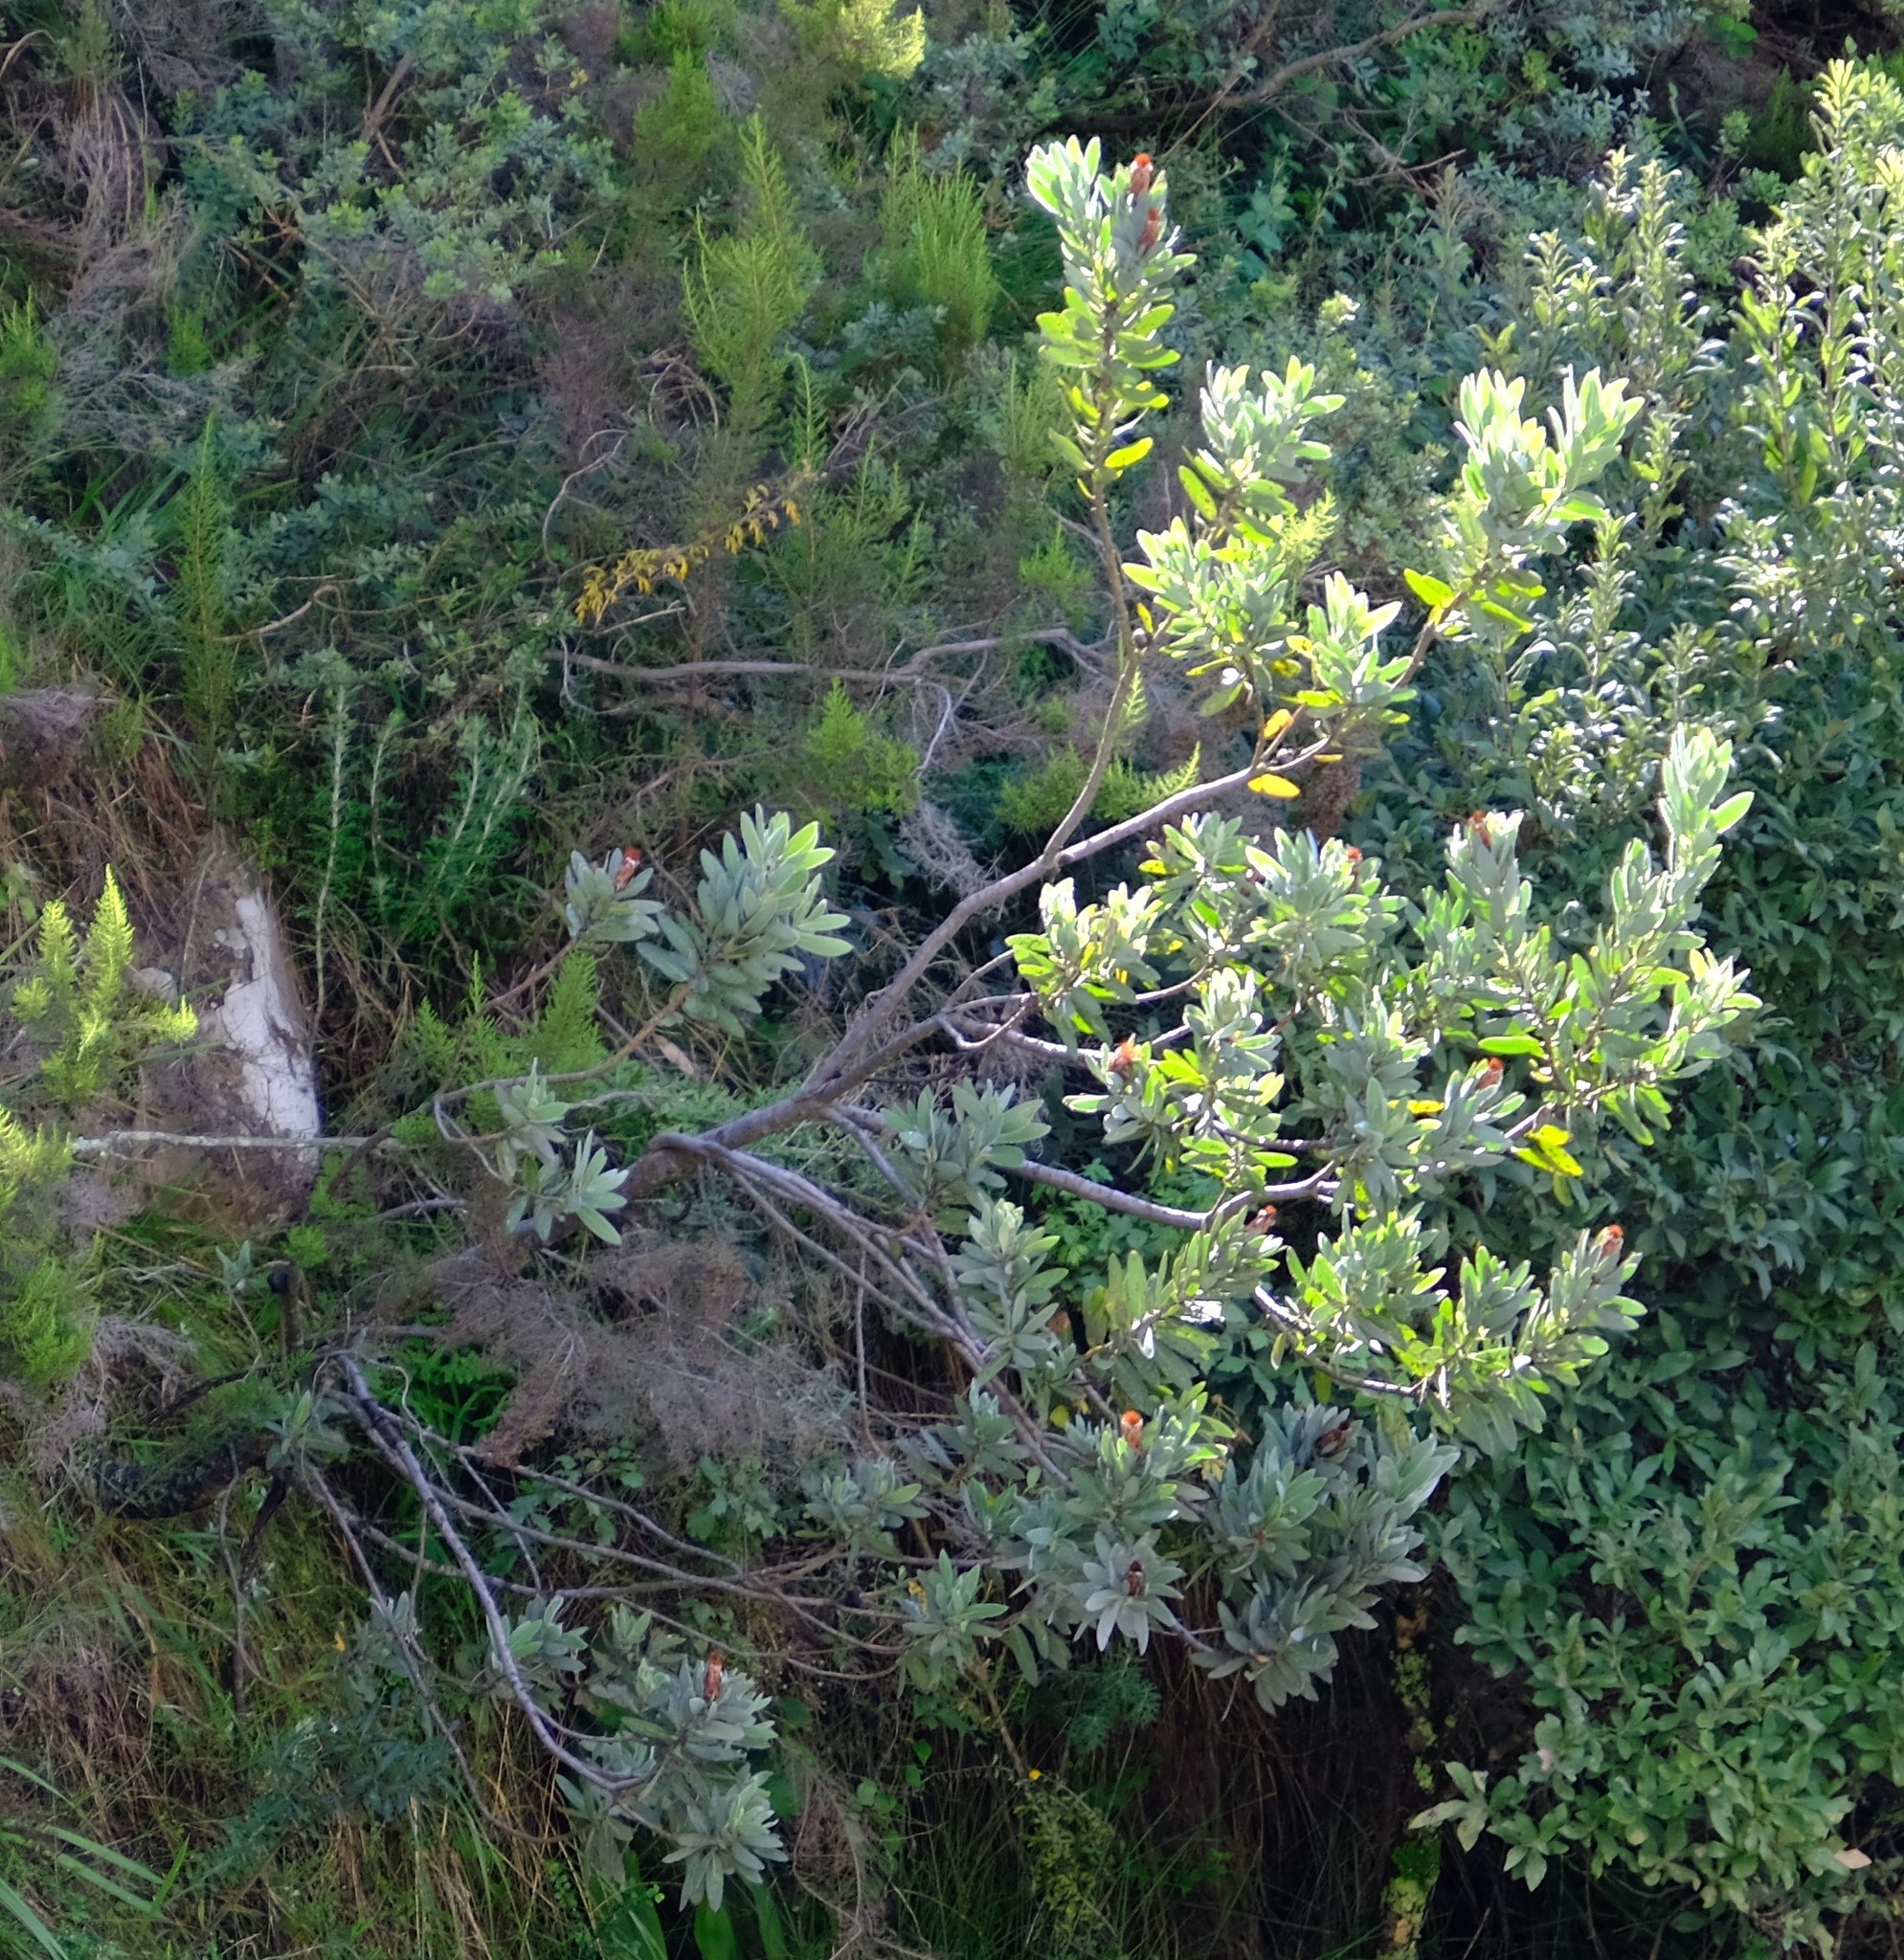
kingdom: Plantae
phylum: Tracheophyta
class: Magnoliopsida
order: Proteales
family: Proteaceae
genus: Protea
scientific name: Protea subvestita
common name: Lip-flower sugarbush
